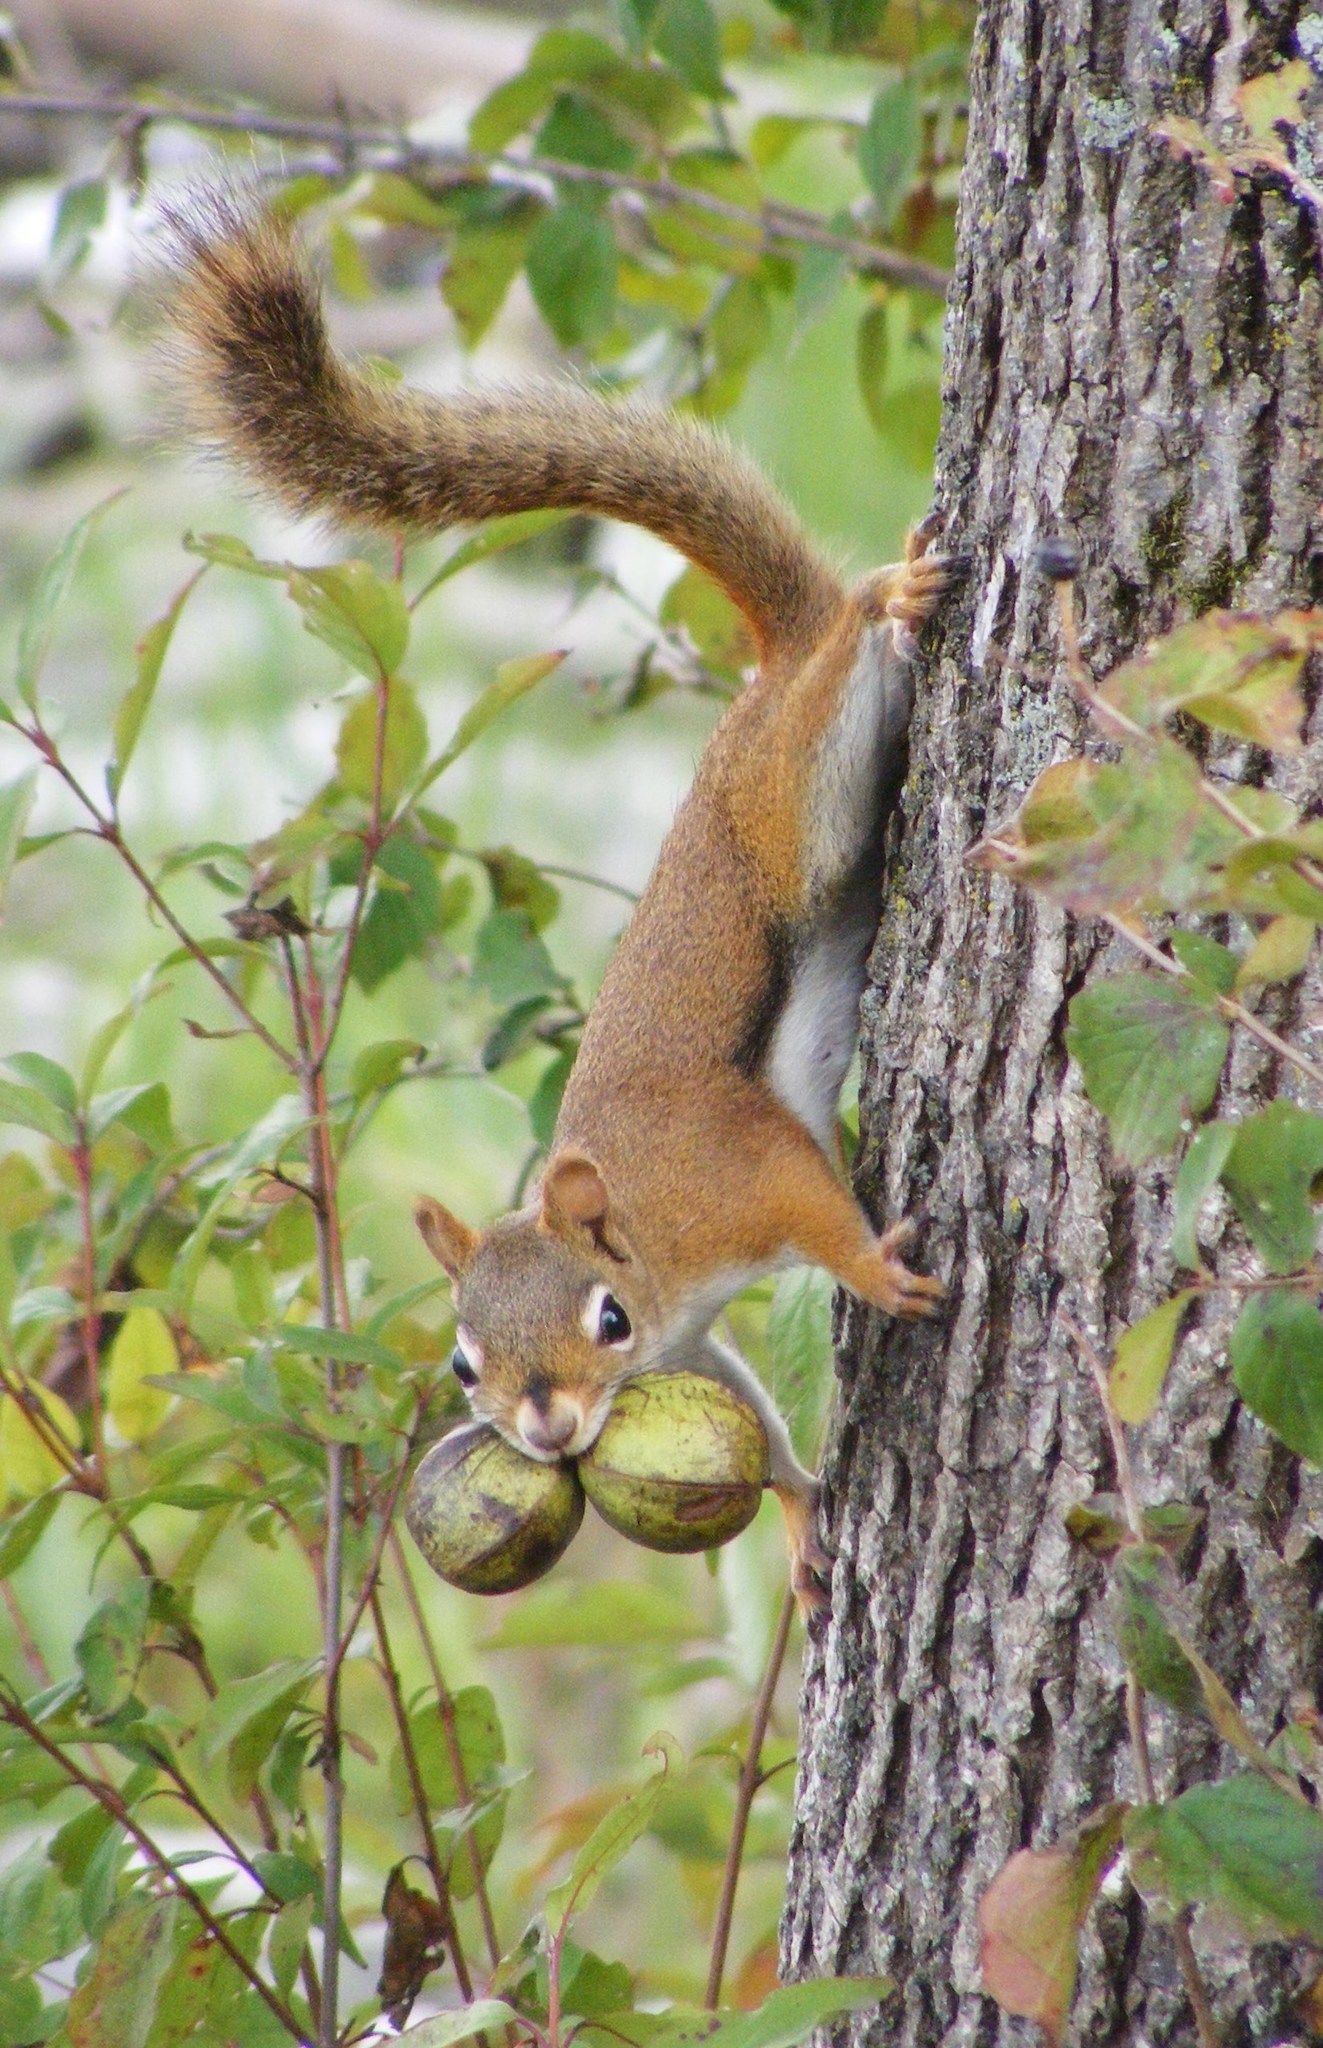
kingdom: Animalia
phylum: Chordata
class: Mammalia
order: Rodentia
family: Sciuridae
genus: Tamiasciurus
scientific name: Tamiasciurus hudsonicus
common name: Red squirrel
